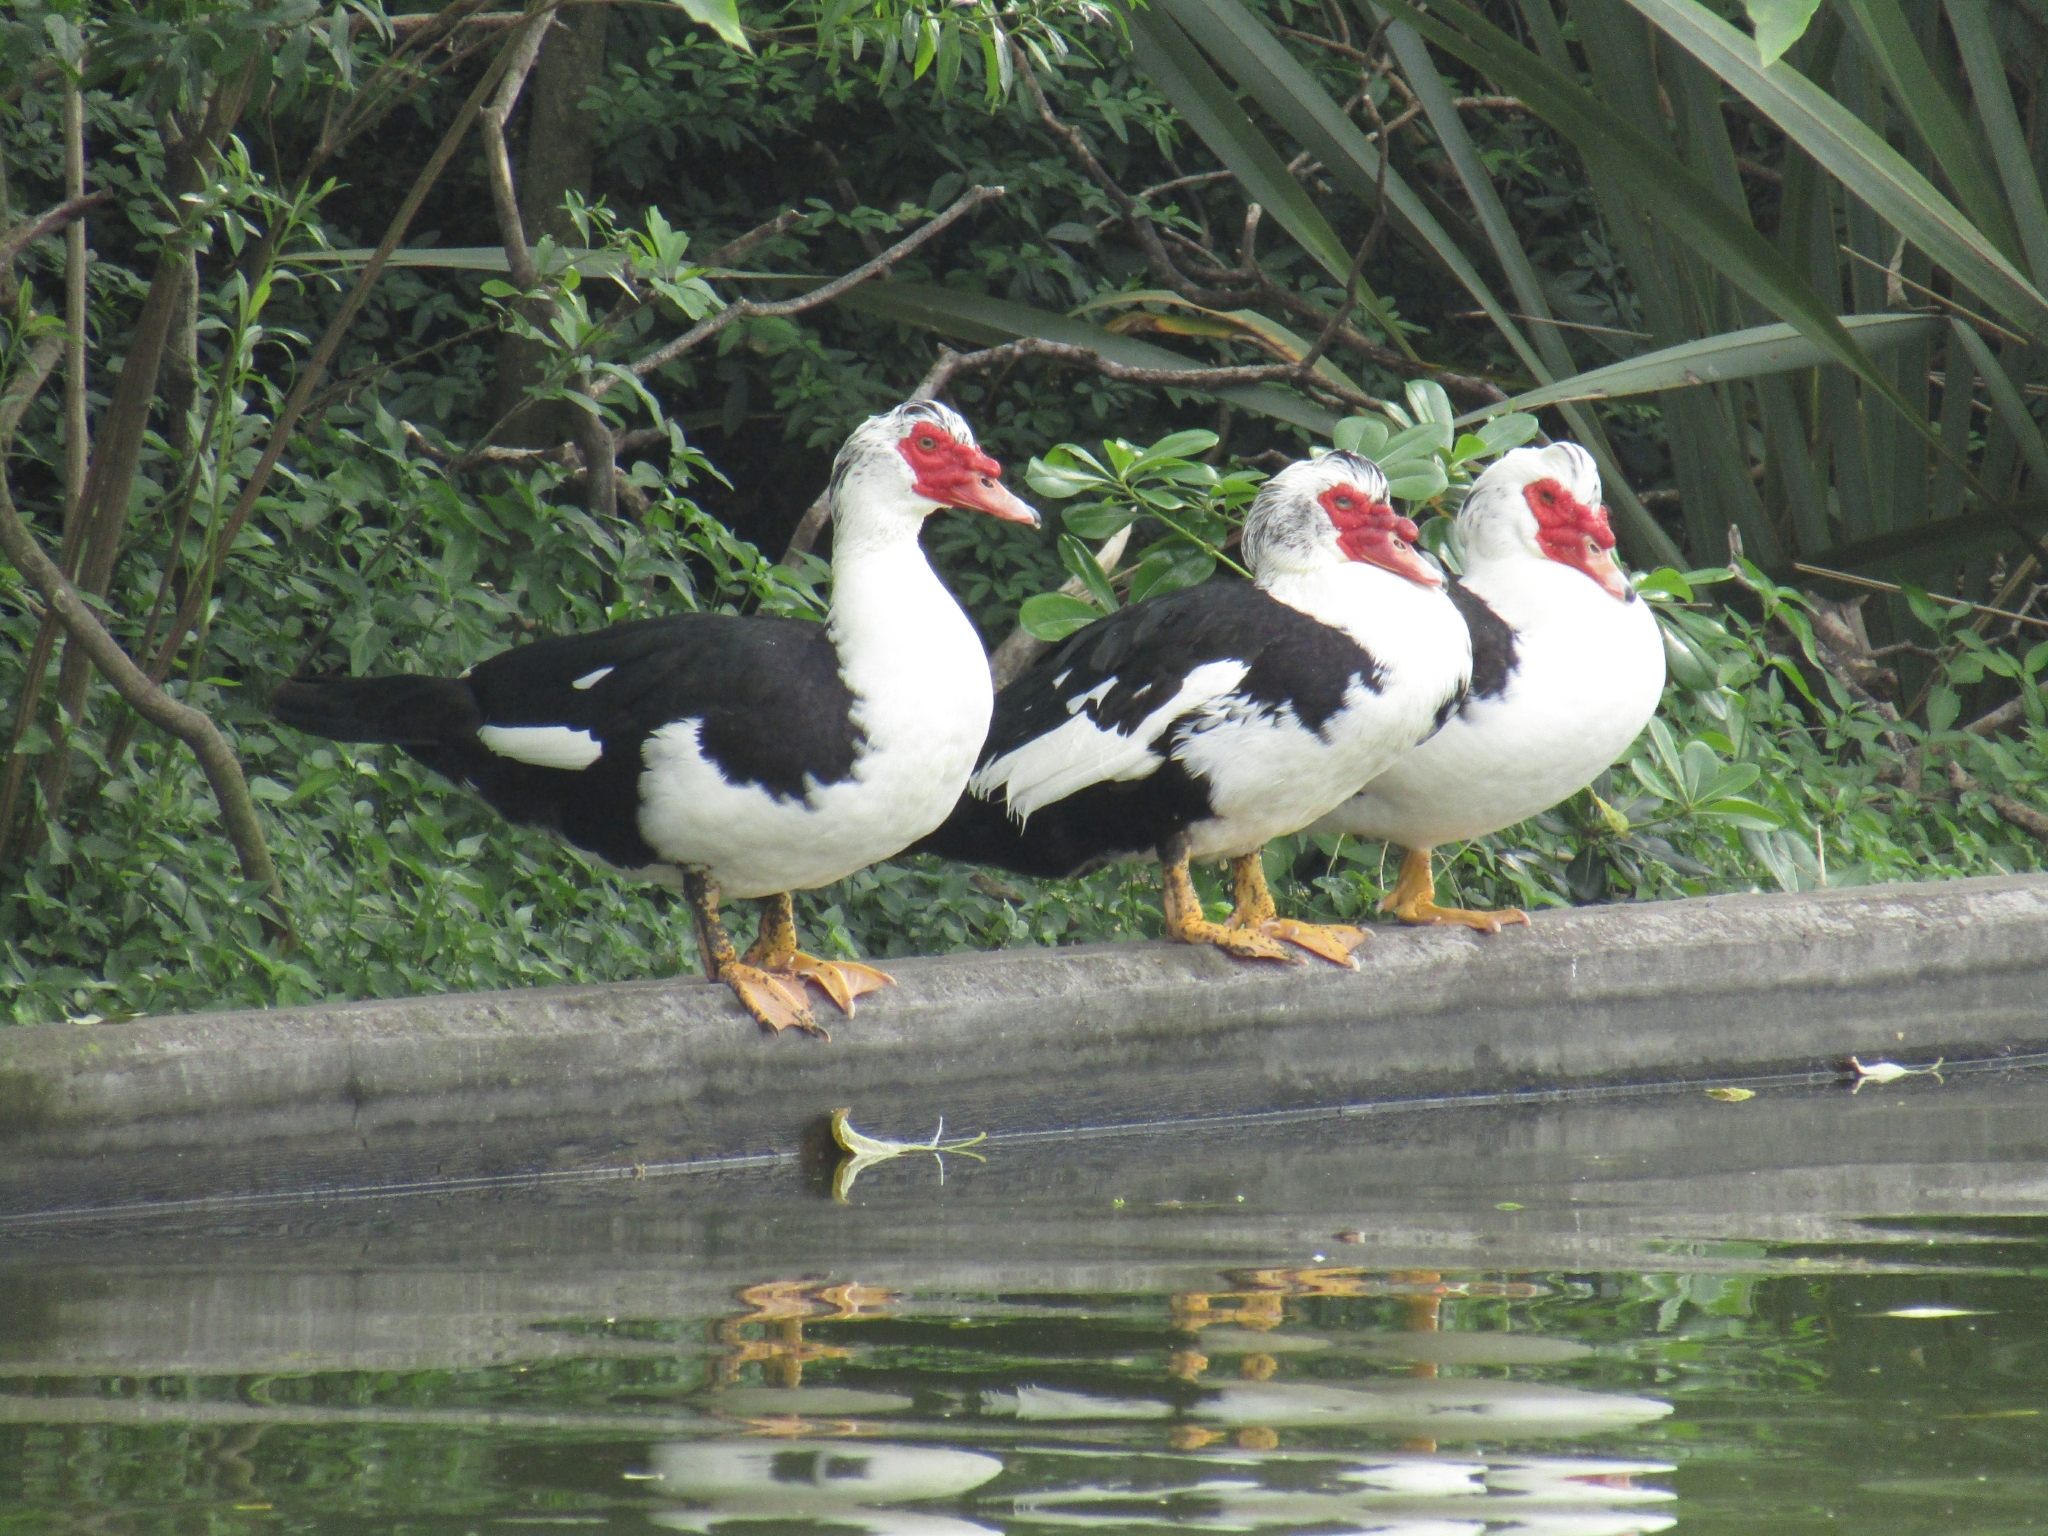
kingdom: Animalia
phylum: Chordata
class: Aves
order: Anseriformes
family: Anatidae
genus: Cairina
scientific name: Cairina moschata
